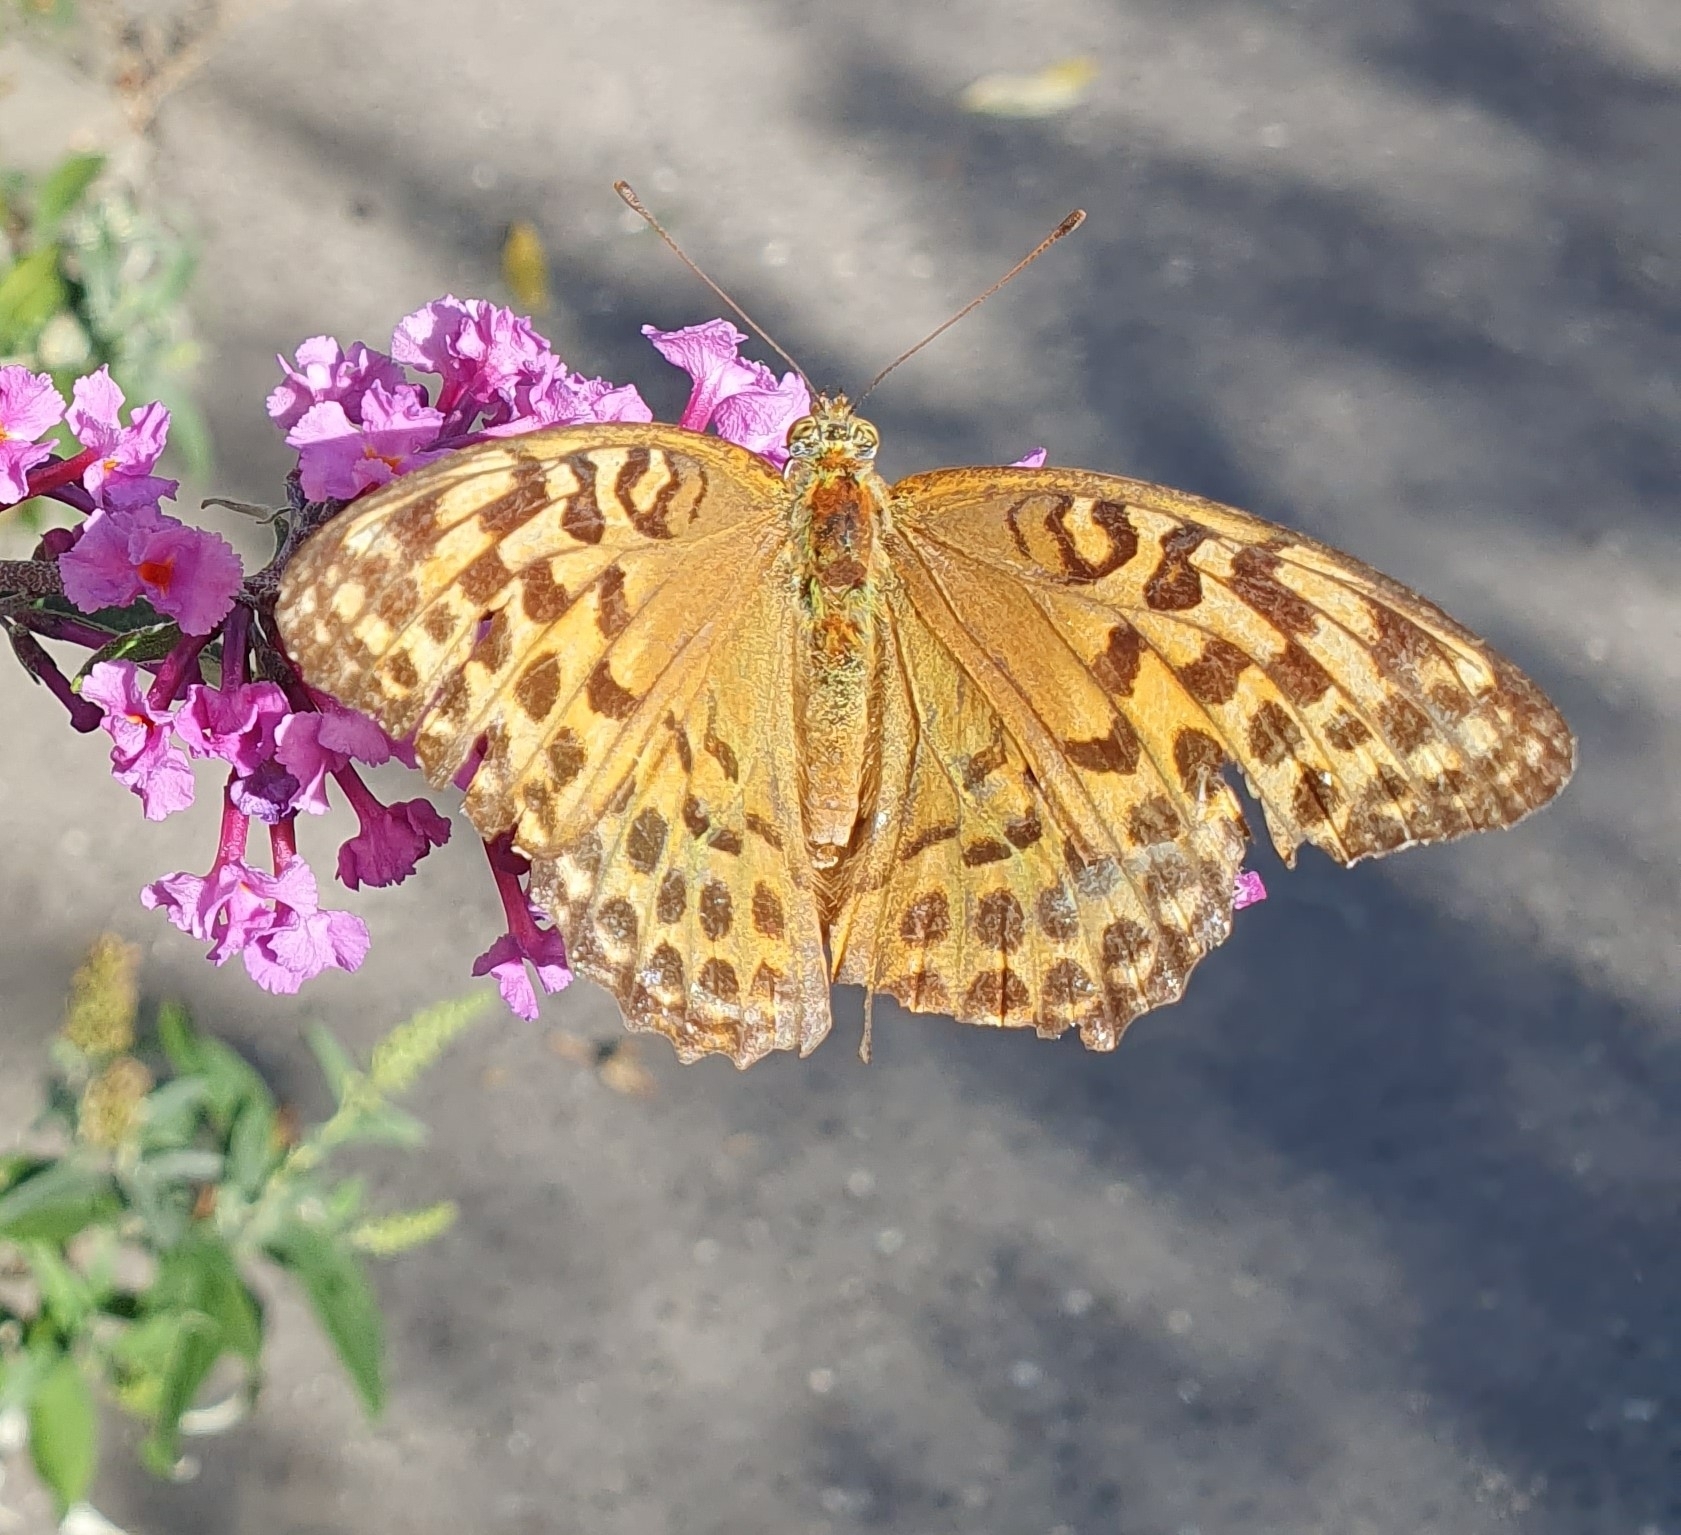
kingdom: Animalia
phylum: Arthropoda
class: Insecta
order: Lepidoptera
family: Nymphalidae
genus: Argynnis
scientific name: Argynnis paphia
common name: Silver-washed fritillary
